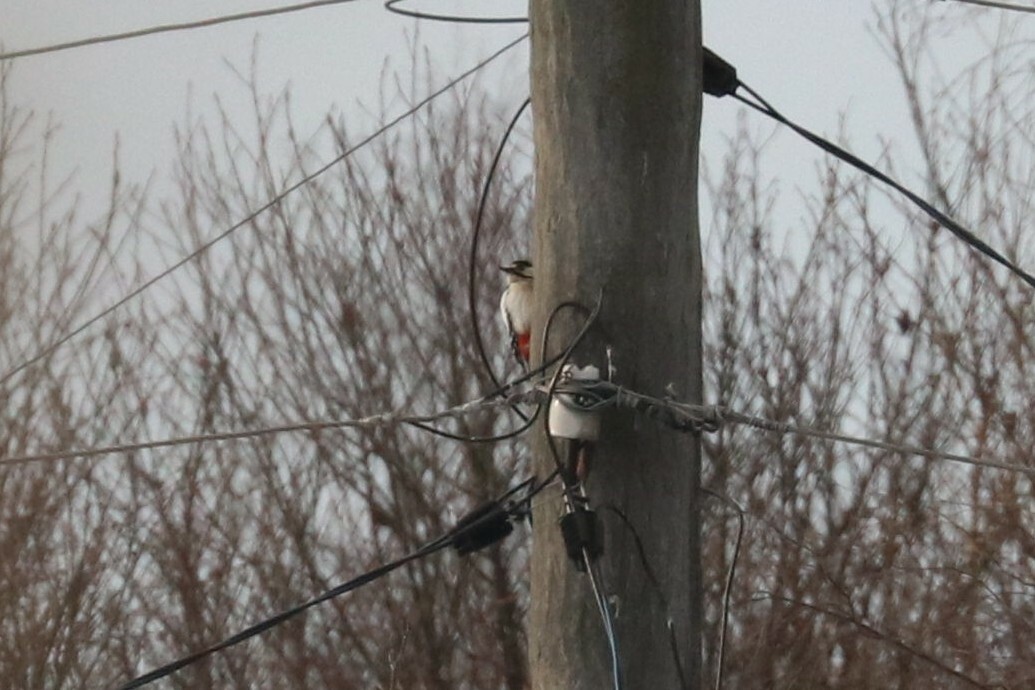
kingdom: Animalia
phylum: Chordata
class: Aves
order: Piciformes
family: Picidae
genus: Dendrocopos
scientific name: Dendrocopos major
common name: Great spotted woodpecker
